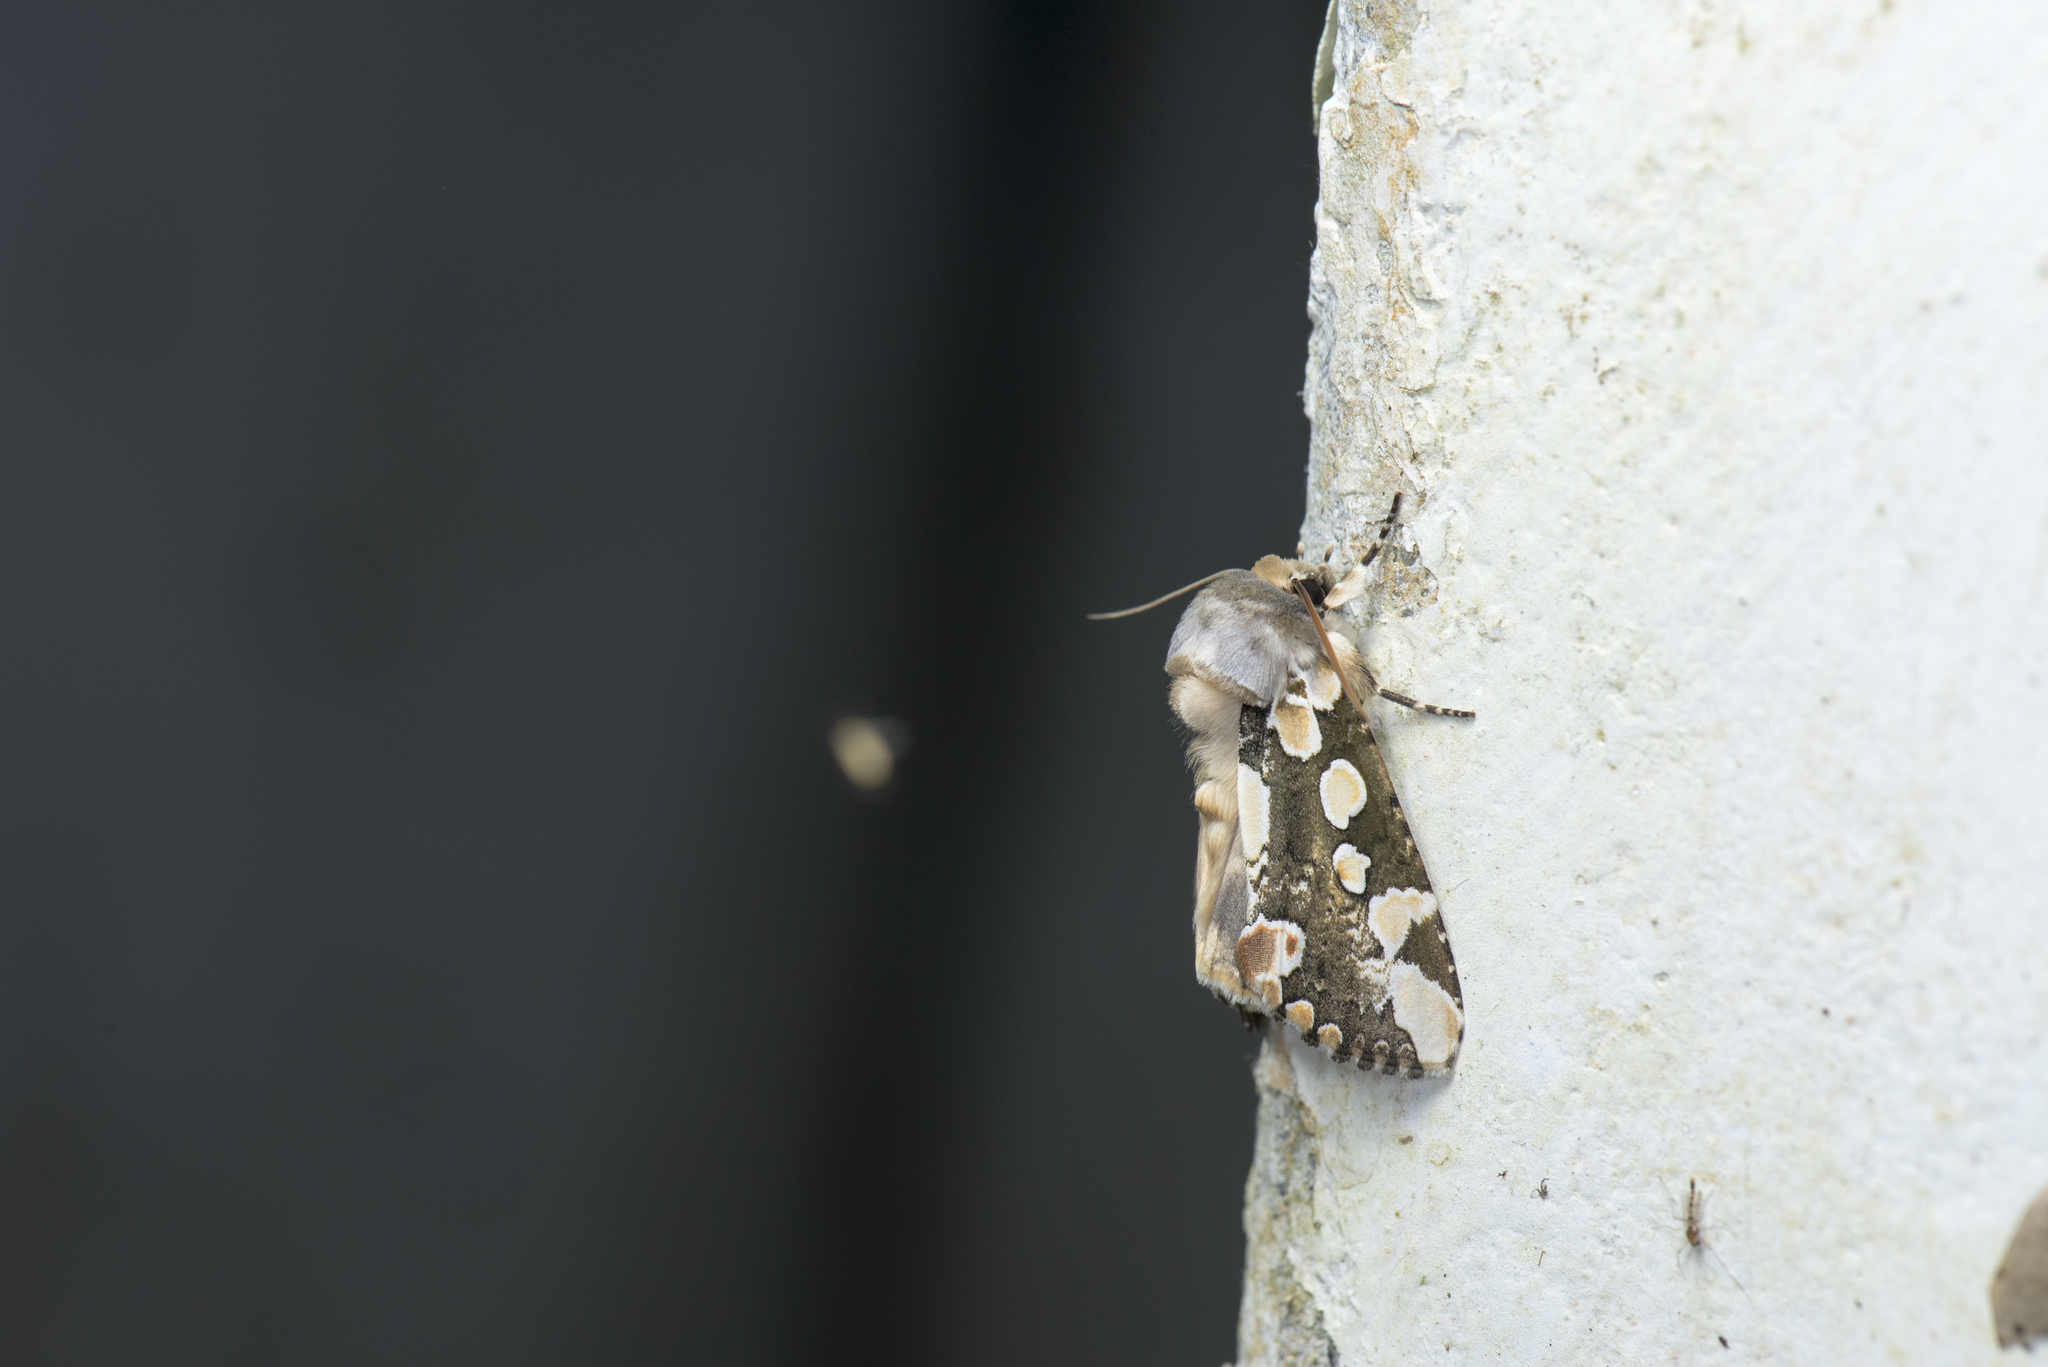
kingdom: Animalia
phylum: Arthropoda
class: Insecta
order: Lepidoptera
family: Drepanidae
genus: Horithyatira
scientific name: Horithyatira takamukui
